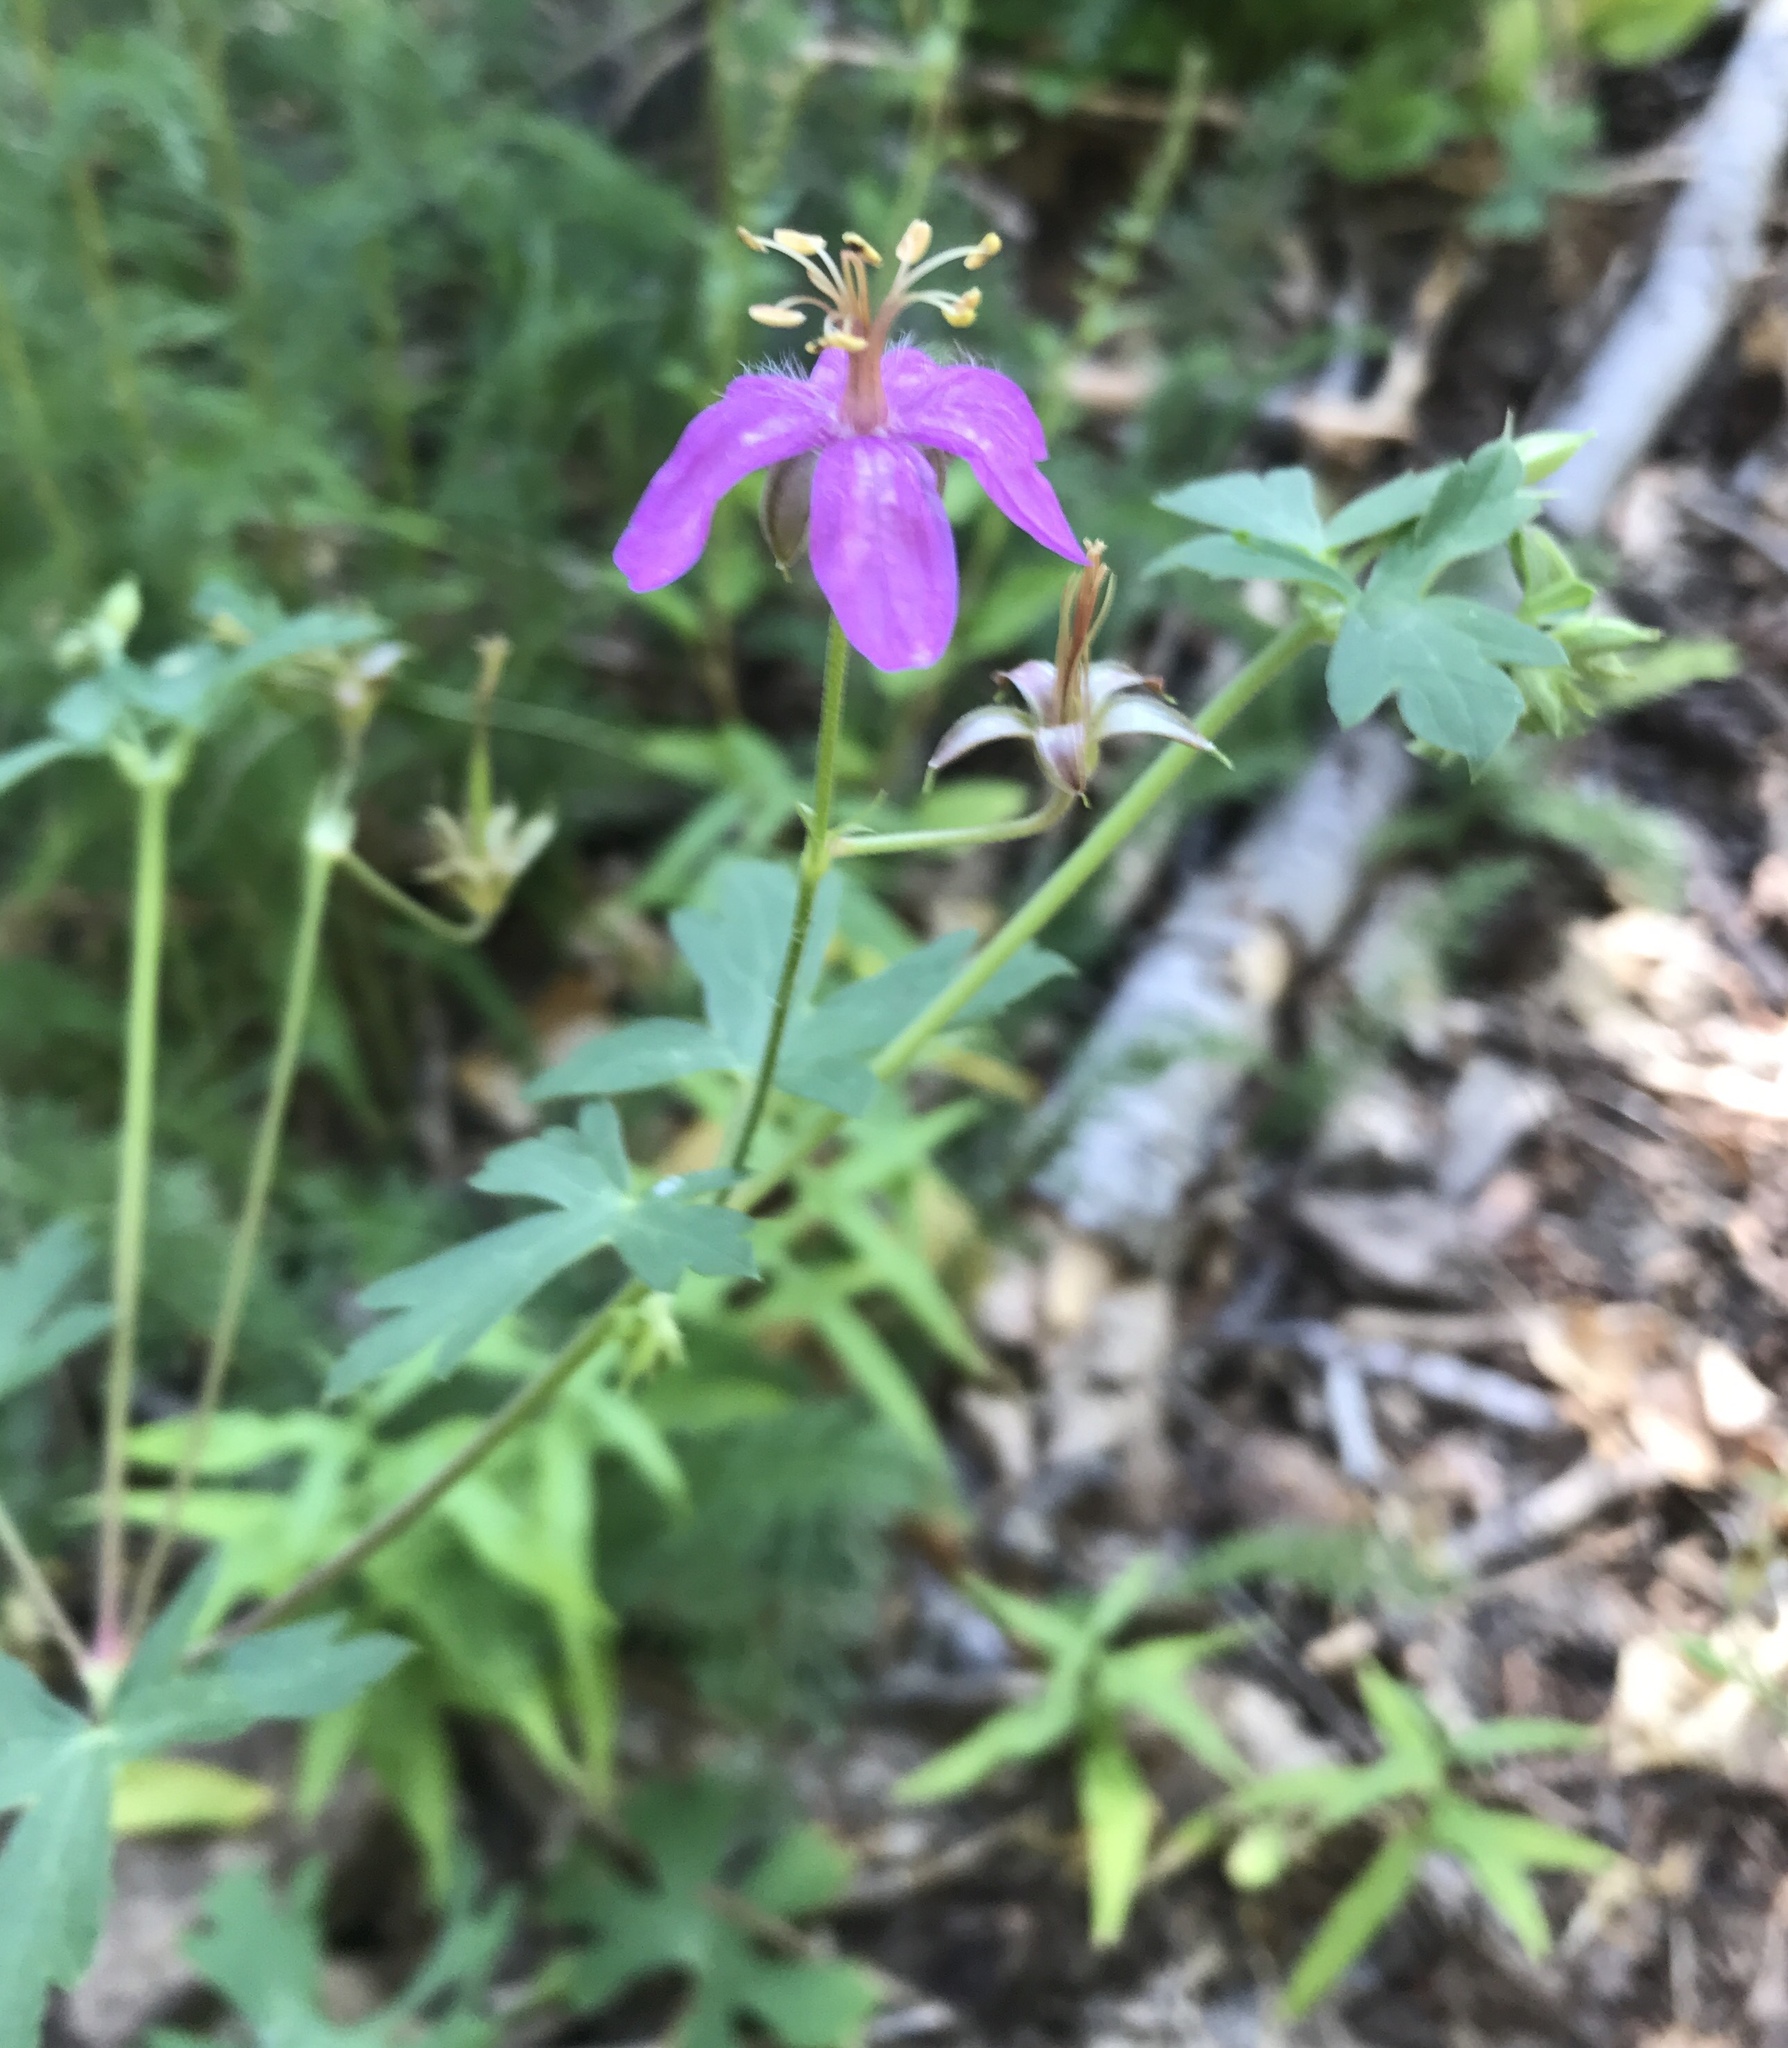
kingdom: Plantae
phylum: Tracheophyta
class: Magnoliopsida
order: Geraniales
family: Geraniaceae
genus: Geranium
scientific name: Geranium caespitosum
